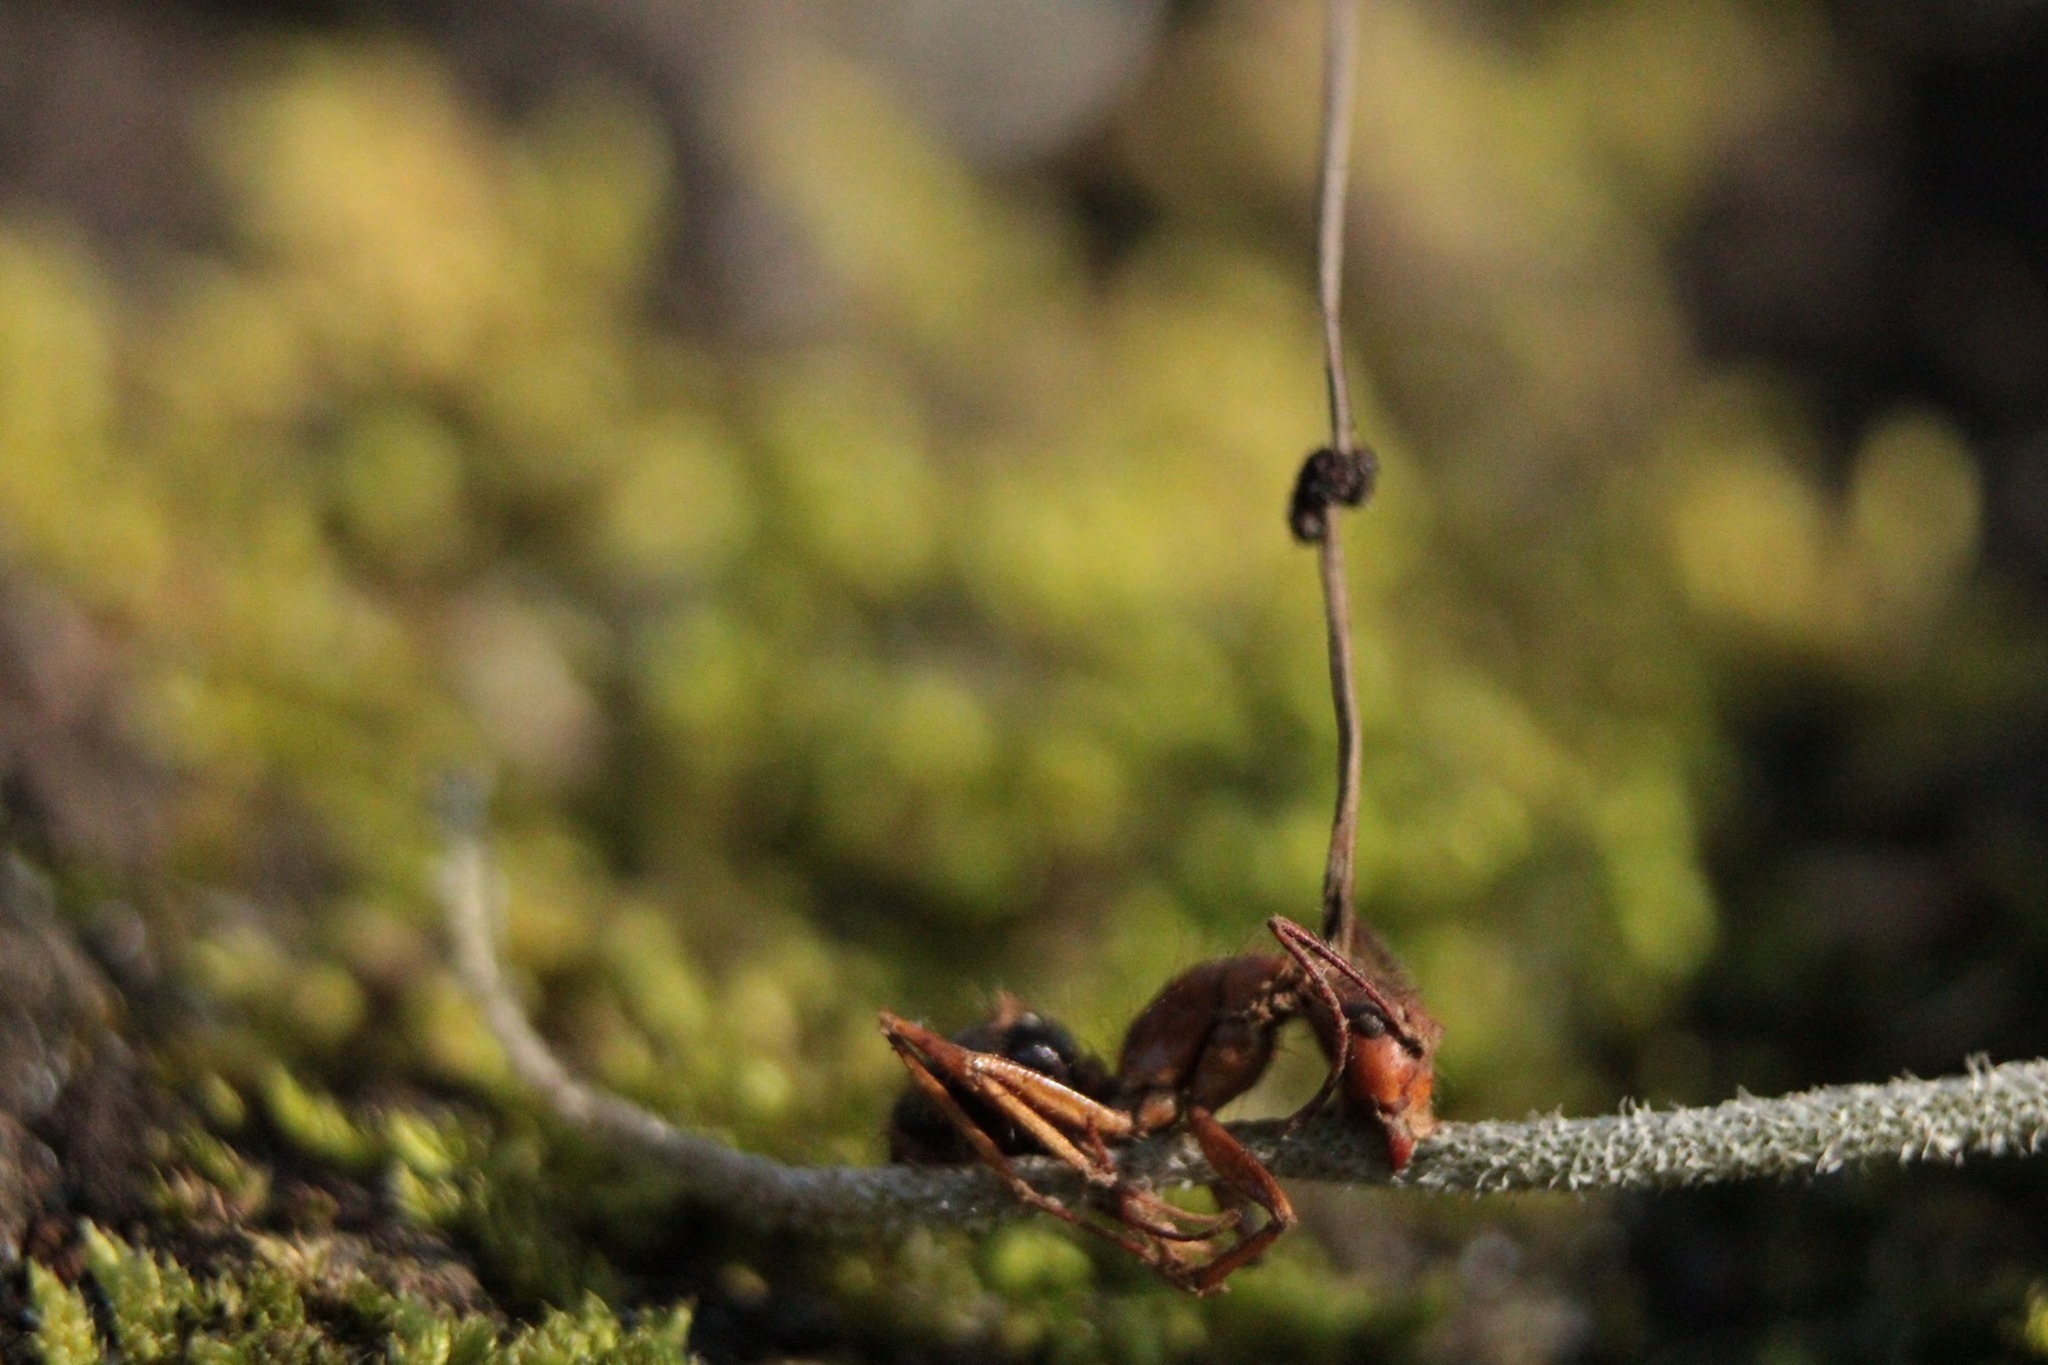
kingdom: Fungi
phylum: Ascomycota
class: Sordariomycetes
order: Hypocreales
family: Ophiocordycipitaceae
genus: Ophiocordyceps
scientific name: Ophiocordyceps camponoti-floridani
